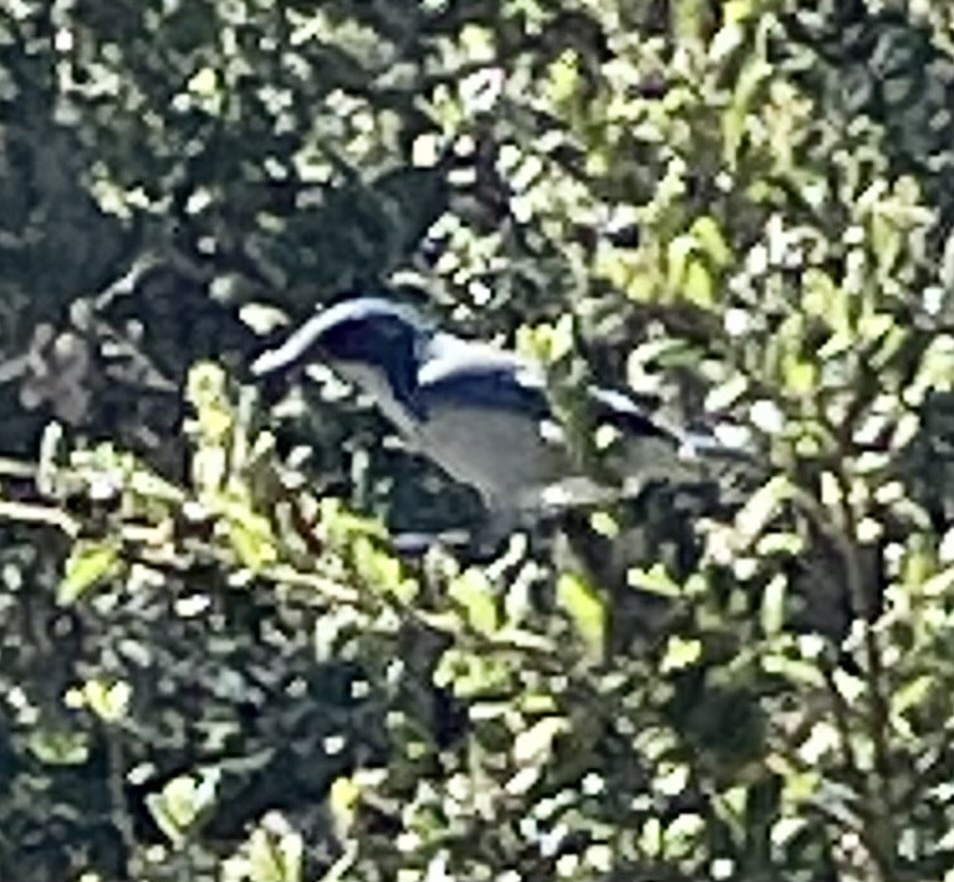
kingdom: Animalia
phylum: Chordata
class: Aves
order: Passeriformes
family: Corvidae
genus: Aphelocoma
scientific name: Aphelocoma californica
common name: California scrub-jay
